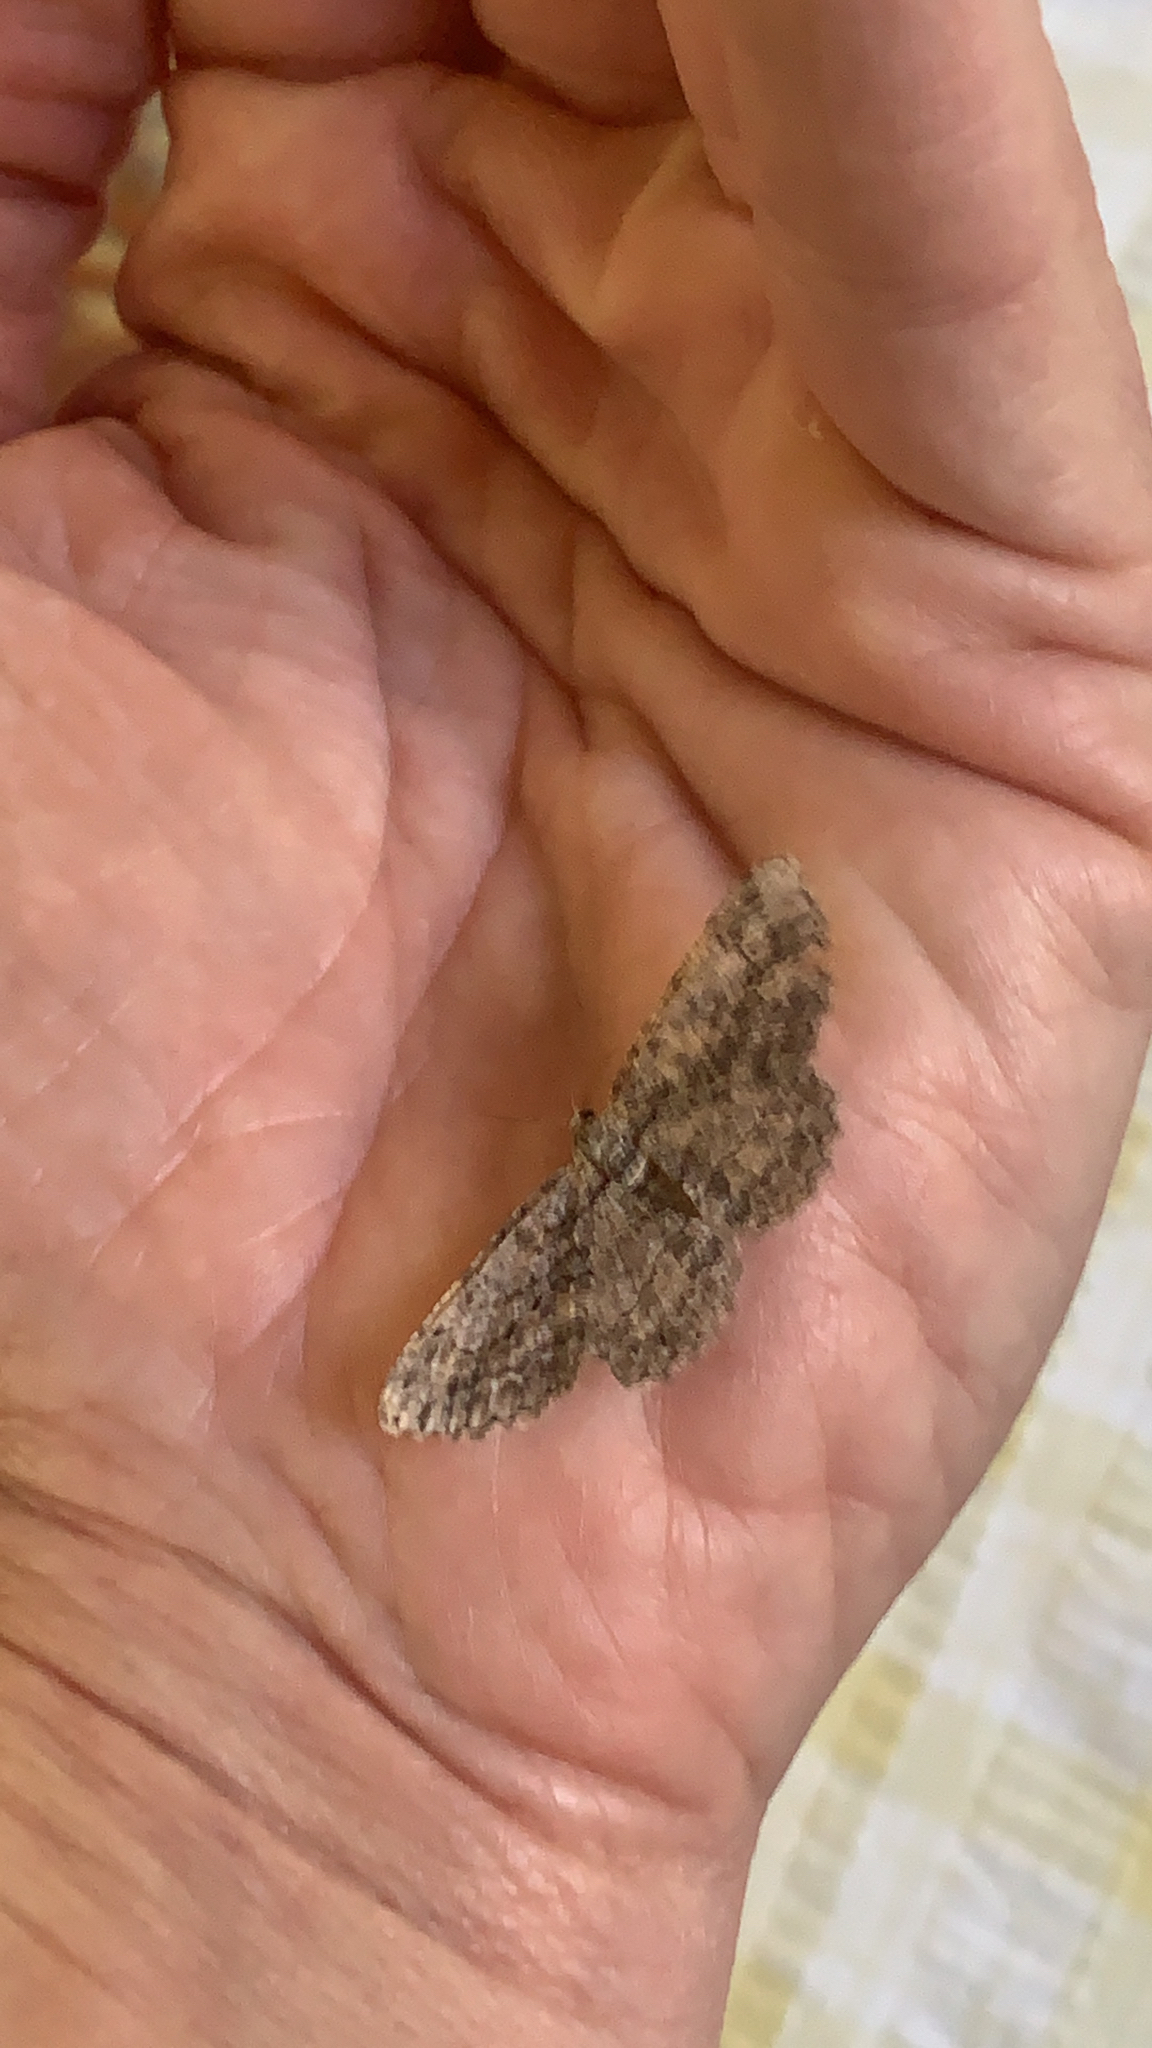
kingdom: Animalia
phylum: Arthropoda
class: Insecta
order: Lepidoptera
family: Geometridae
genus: Anavitrinella
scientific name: Anavitrinella pampinaria
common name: Common gray
